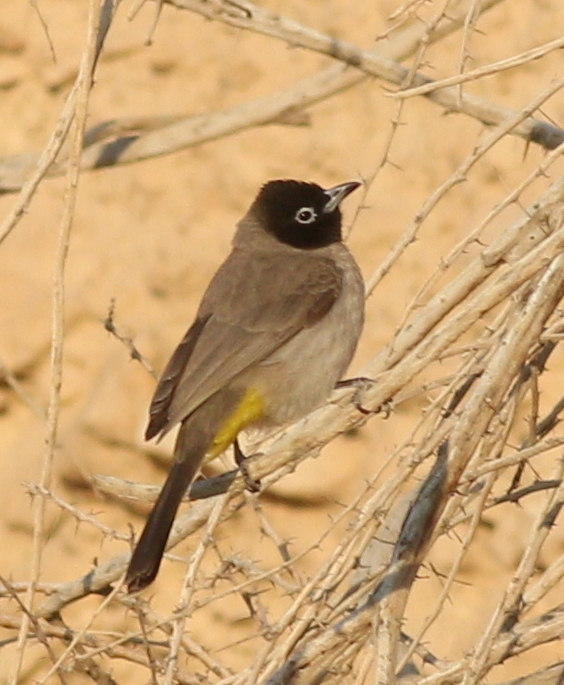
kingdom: Animalia
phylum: Chordata
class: Aves
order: Passeriformes
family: Pycnonotidae
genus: Pycnonotus
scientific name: Pycnonotus xanthopygos
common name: White-spectacled bulbul
